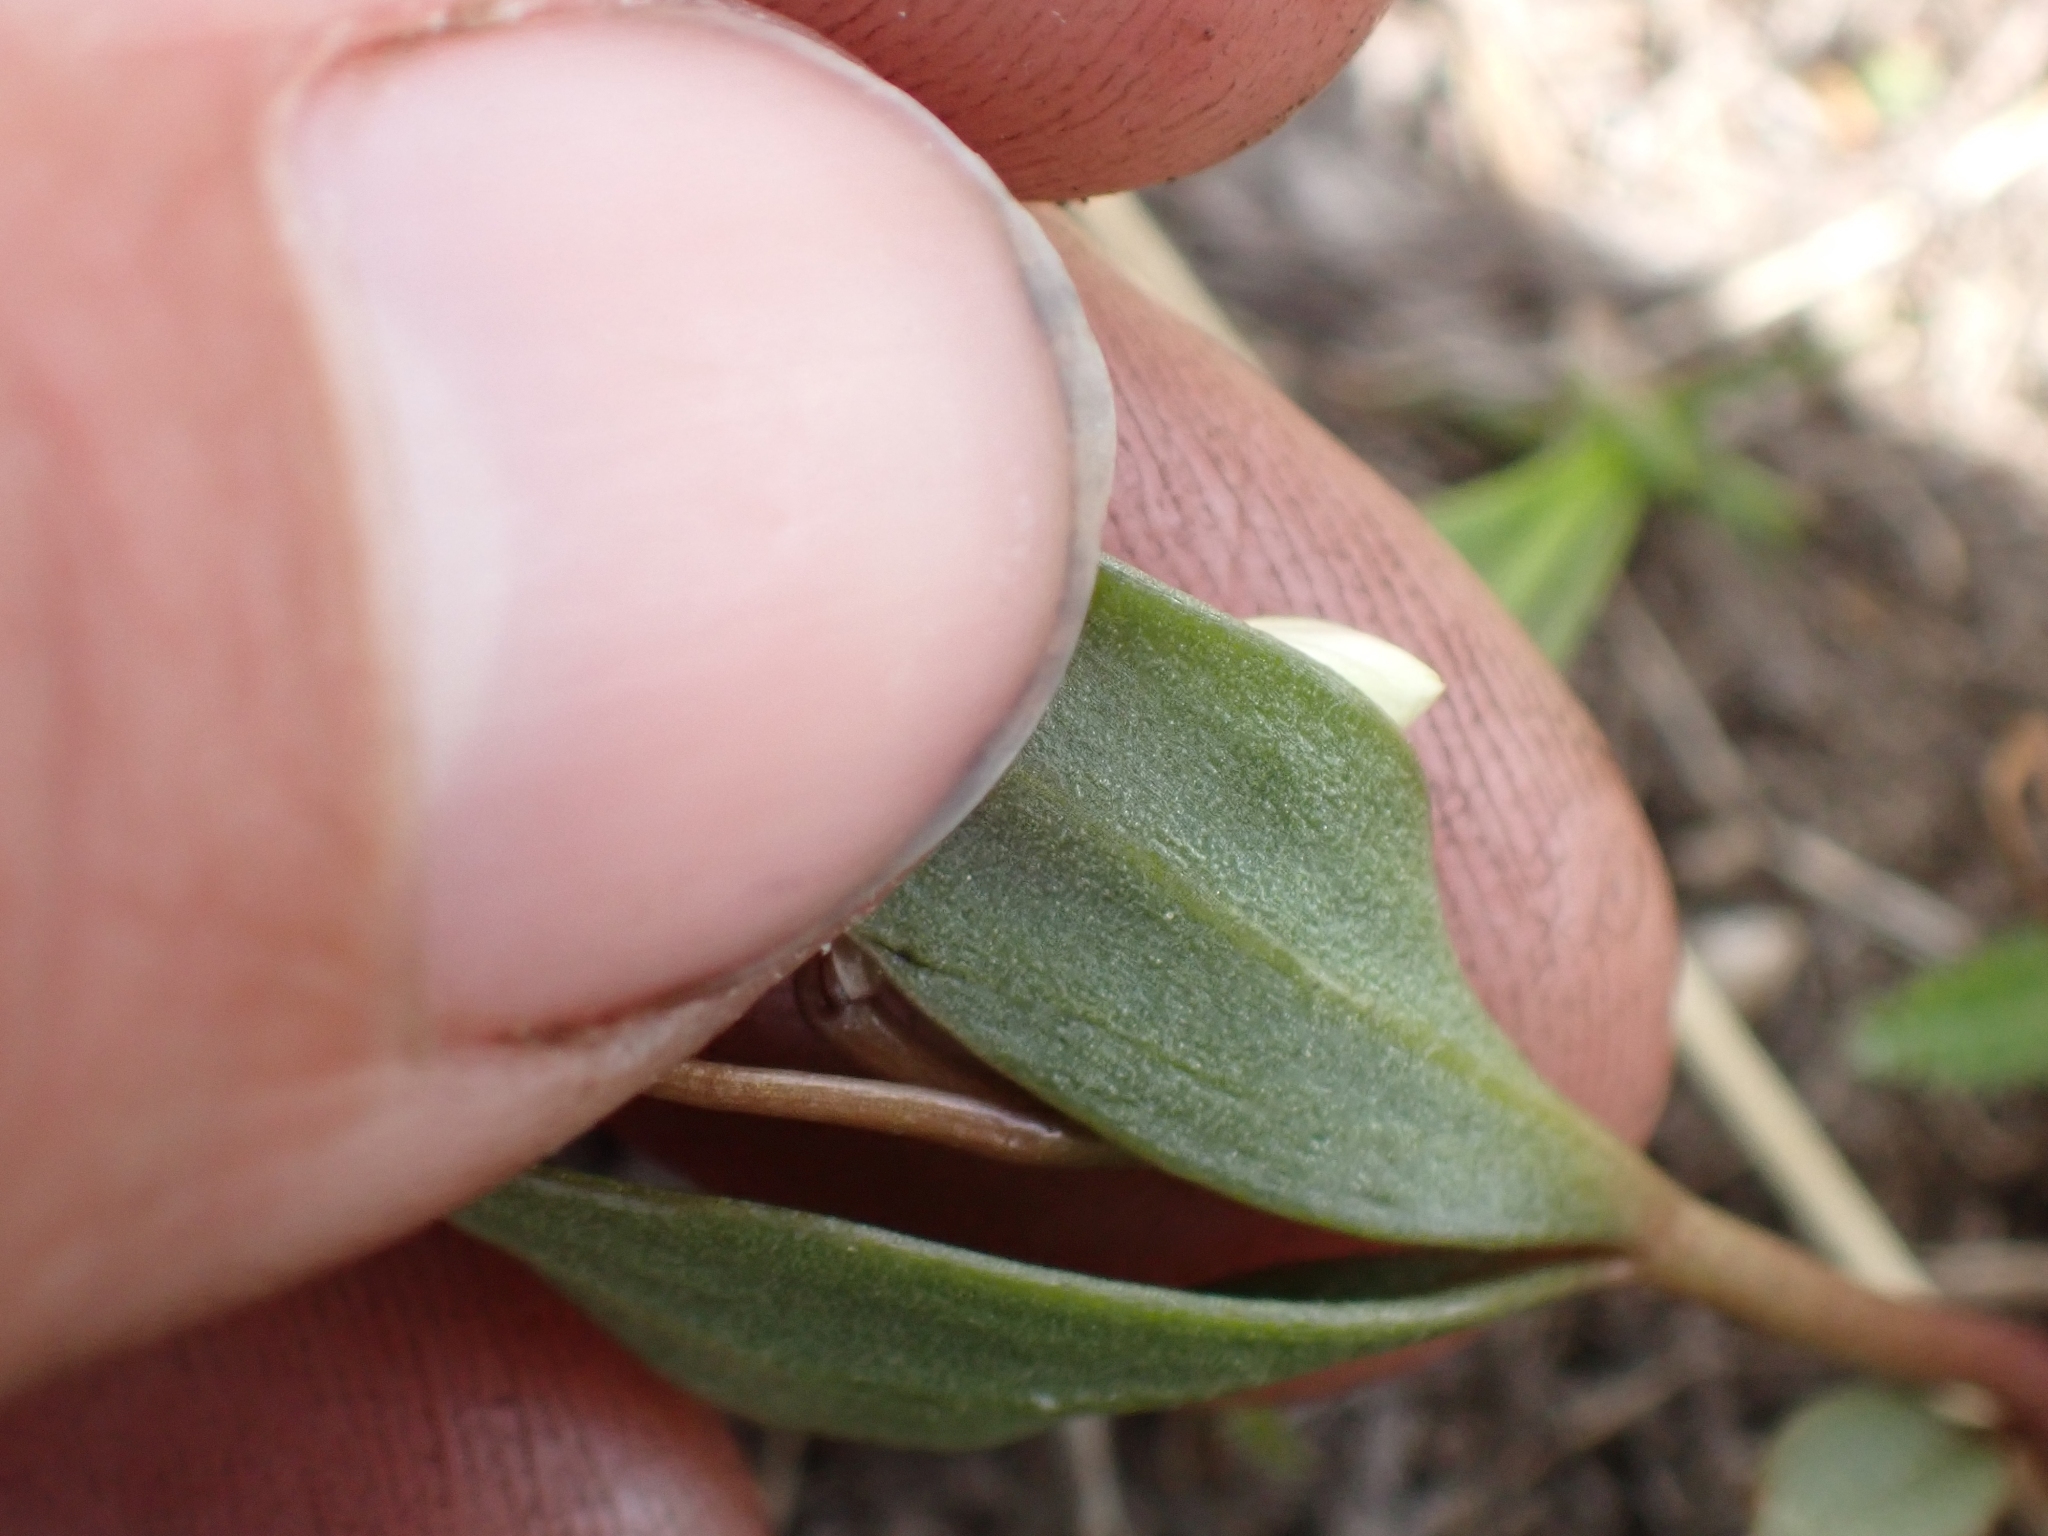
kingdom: Plantae
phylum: Tracheophyta
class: Magnoliopsida
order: Caryophyllales
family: Montiaceae
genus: Claytonia
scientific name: Claytonia lanceolata
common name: Western spring-beauty
